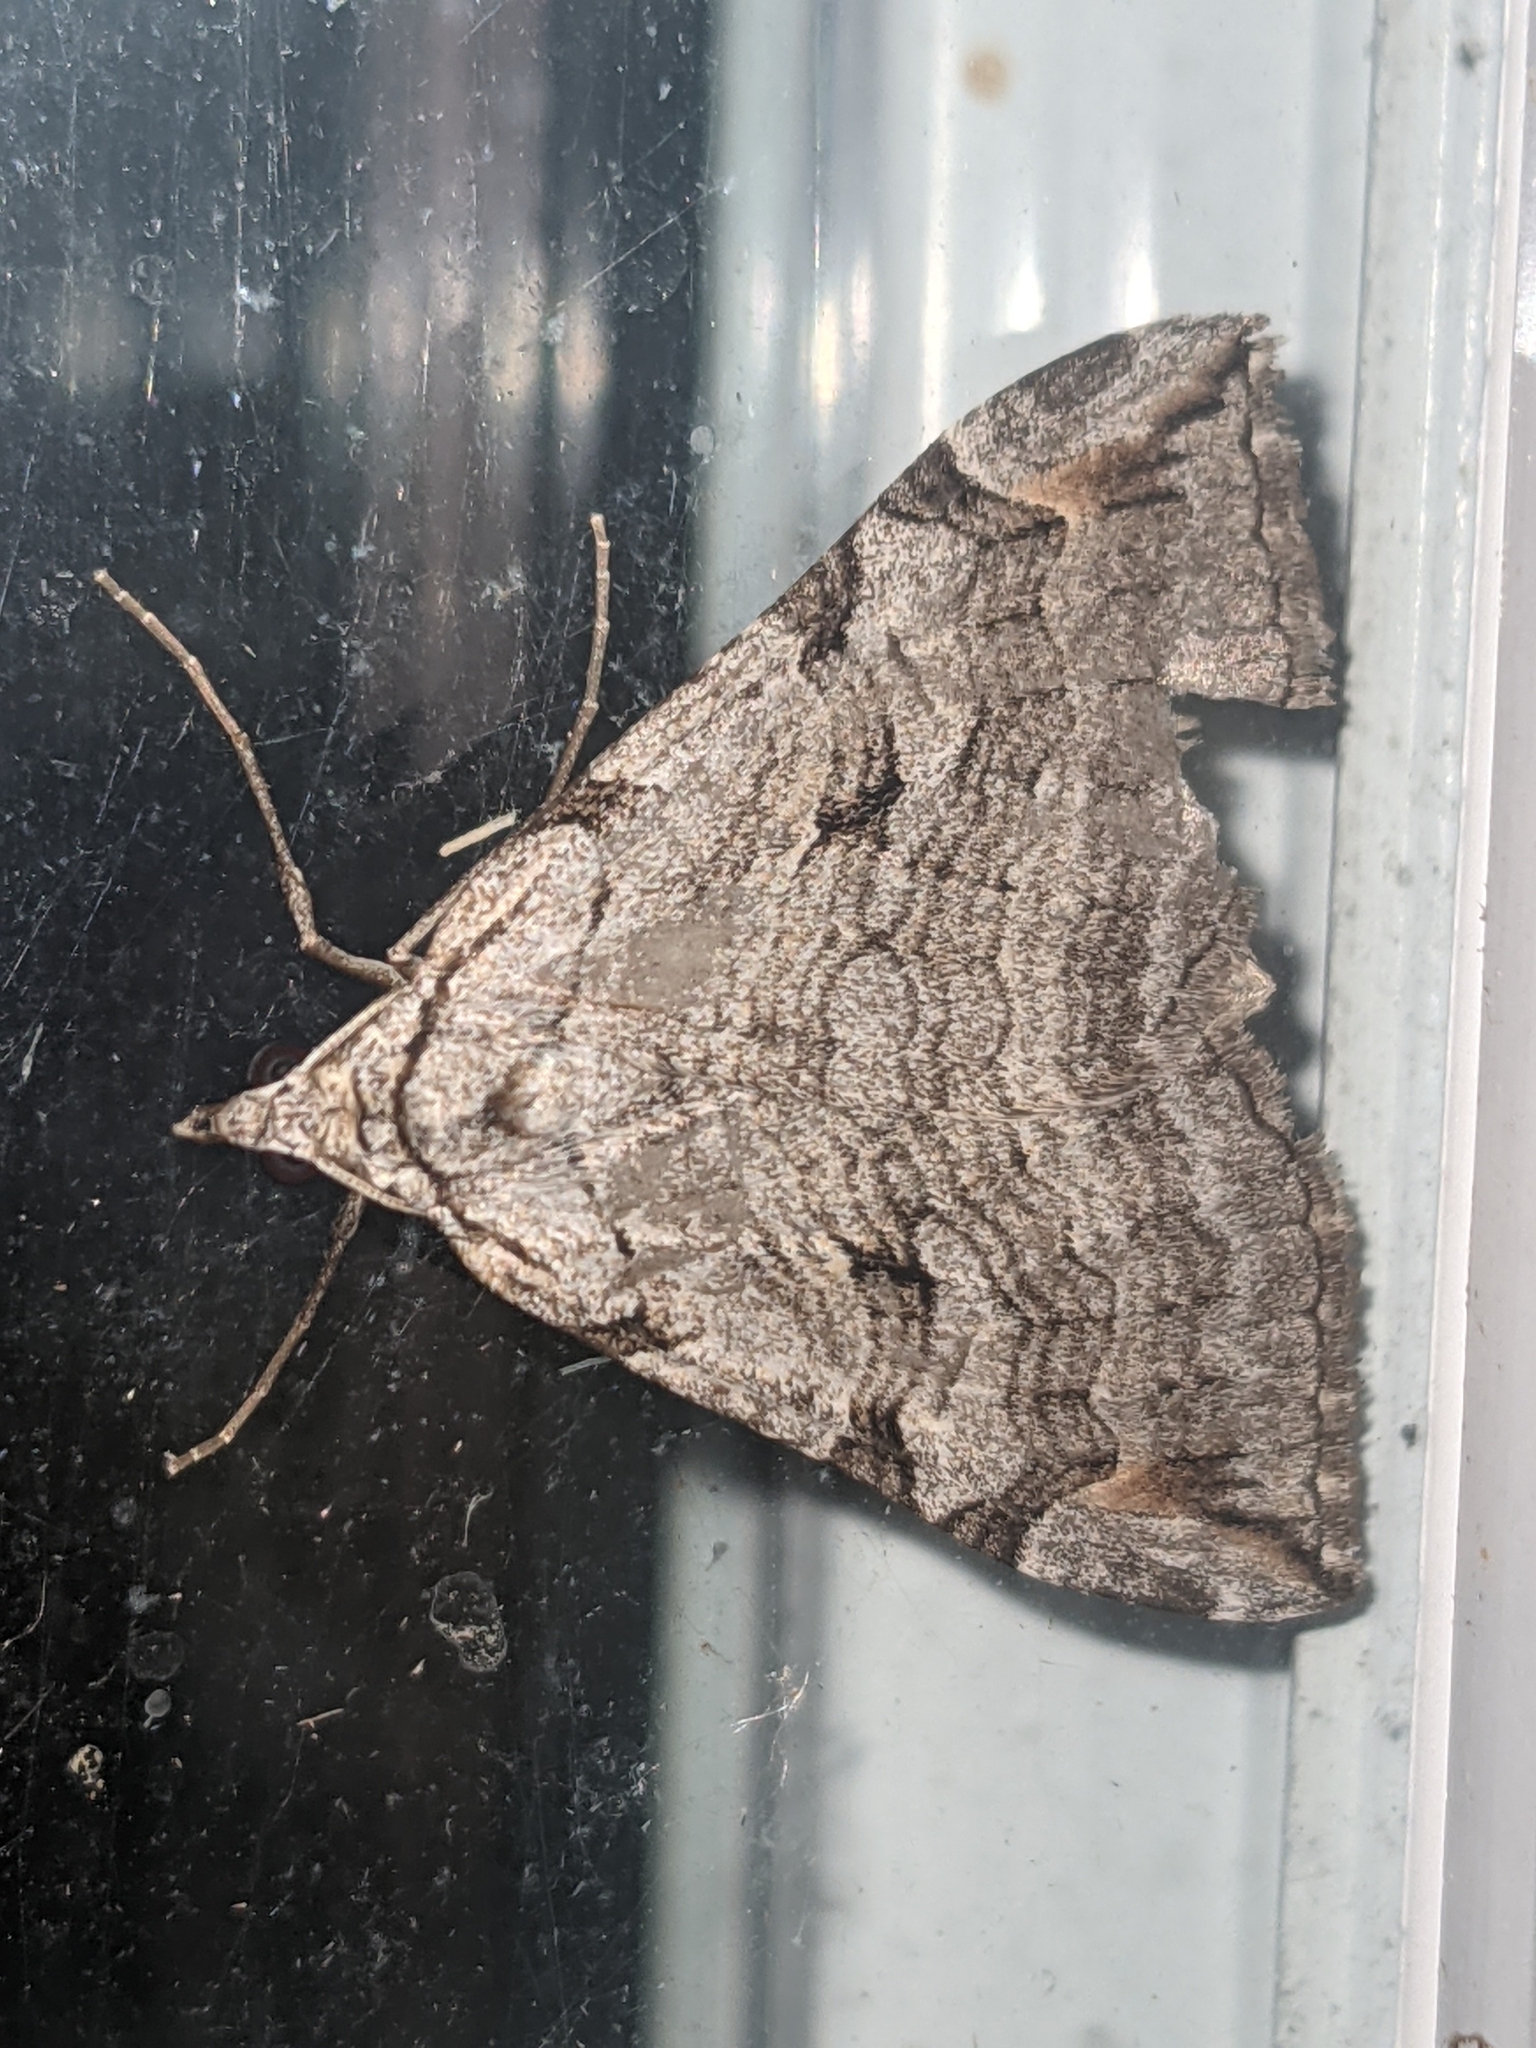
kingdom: Animalia
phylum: Arthropoda
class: Insecta
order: Lepidoptera
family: Geometridae
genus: Aplocera
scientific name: Aplocera plagiata
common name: Treble-bar
